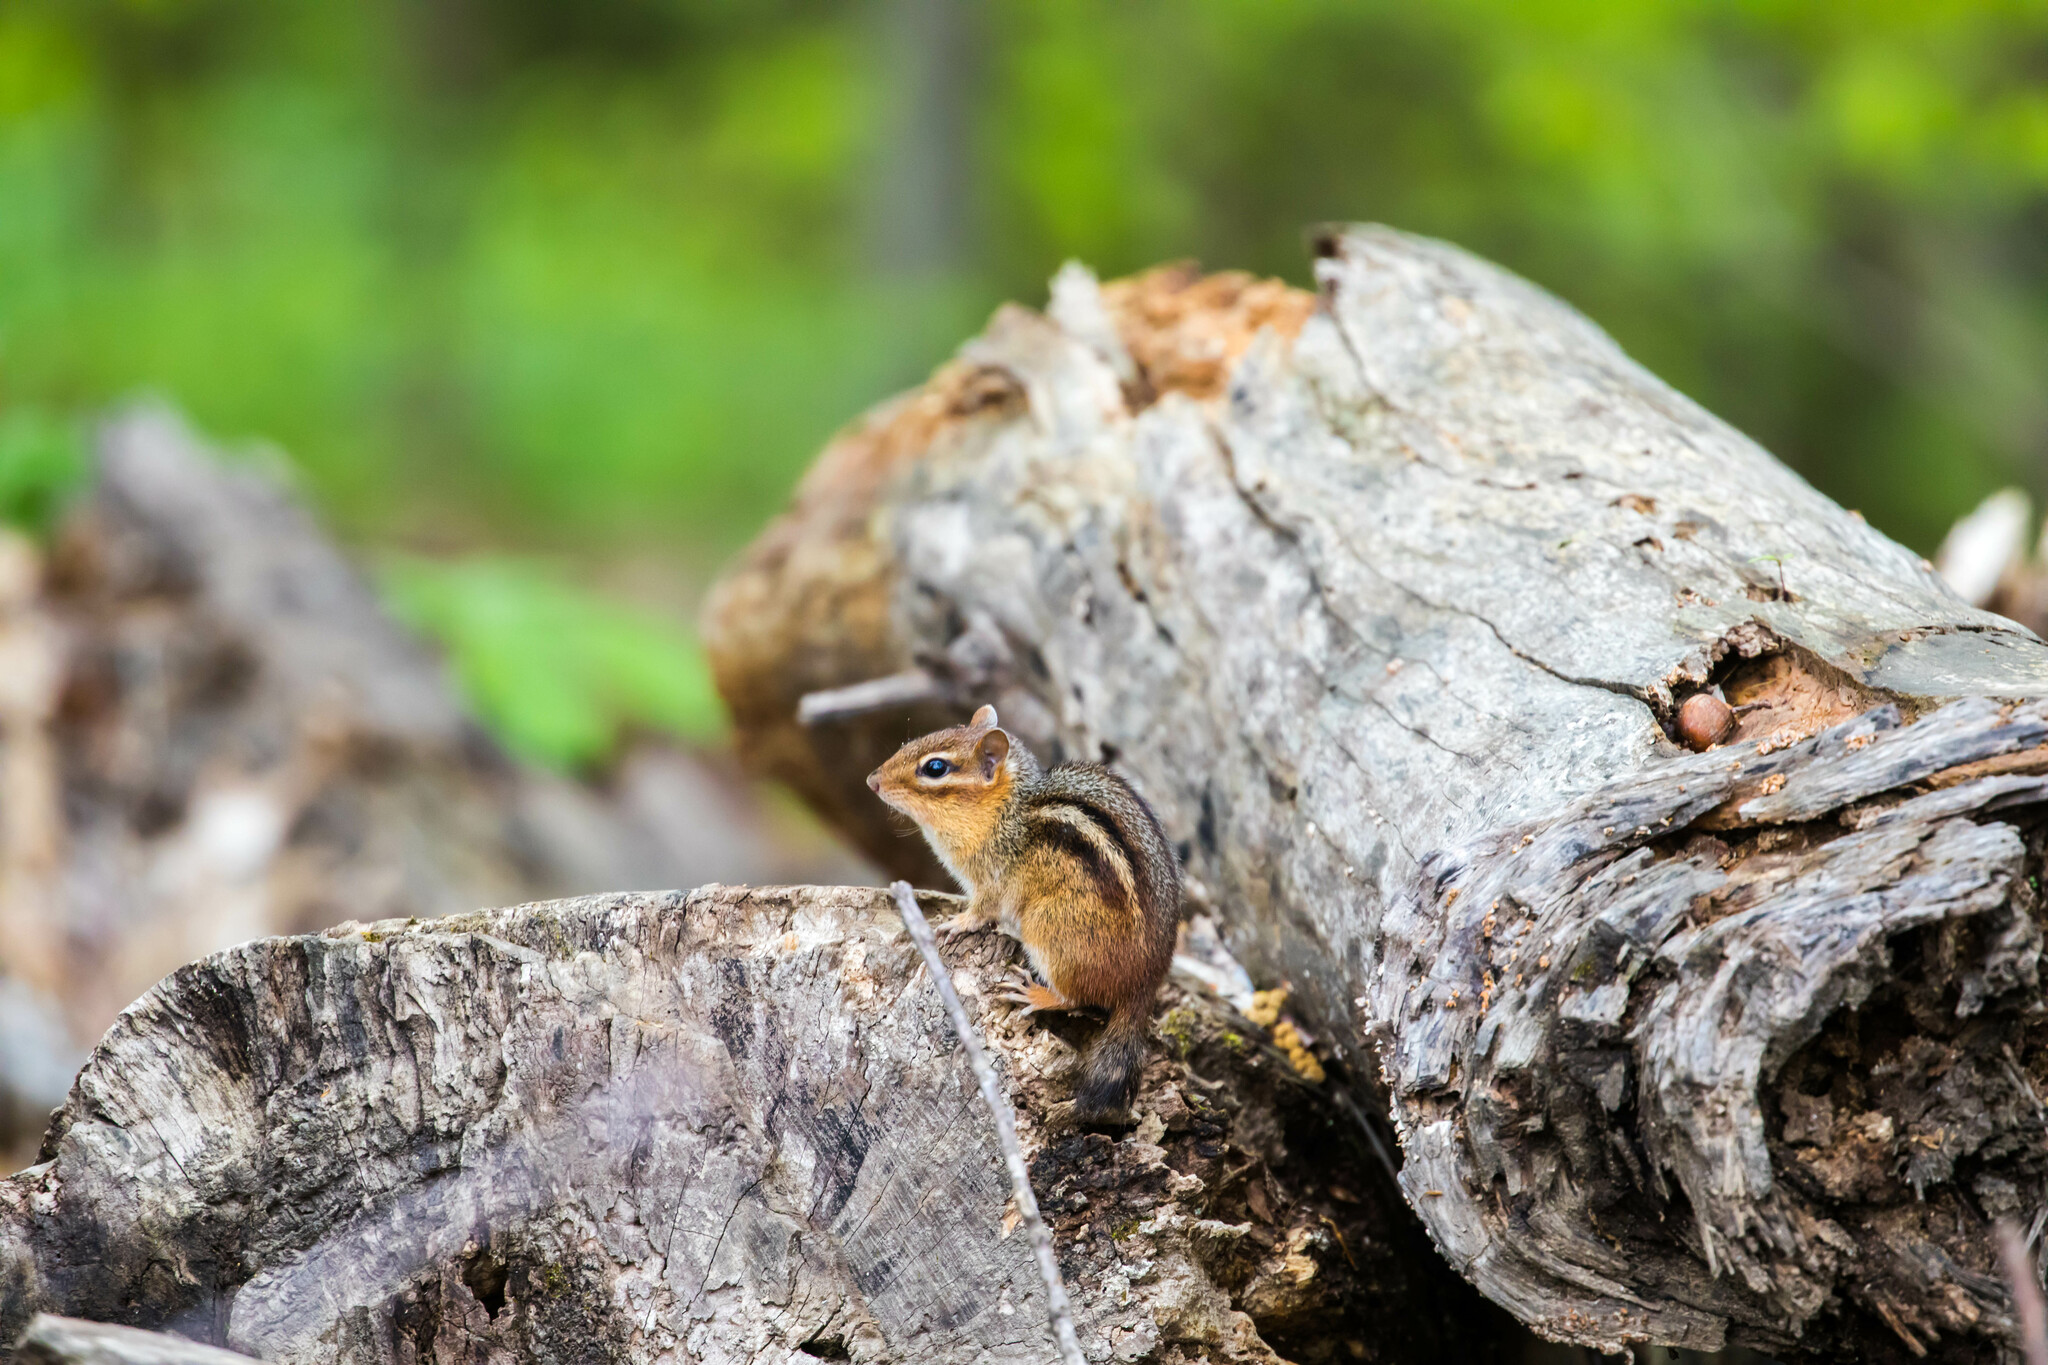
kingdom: Animalia
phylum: Chordata
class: Mammalia
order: Rodentia
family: Sciuridae
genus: Tamias
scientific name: Tamias striatus
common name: Eastern chipmunk
